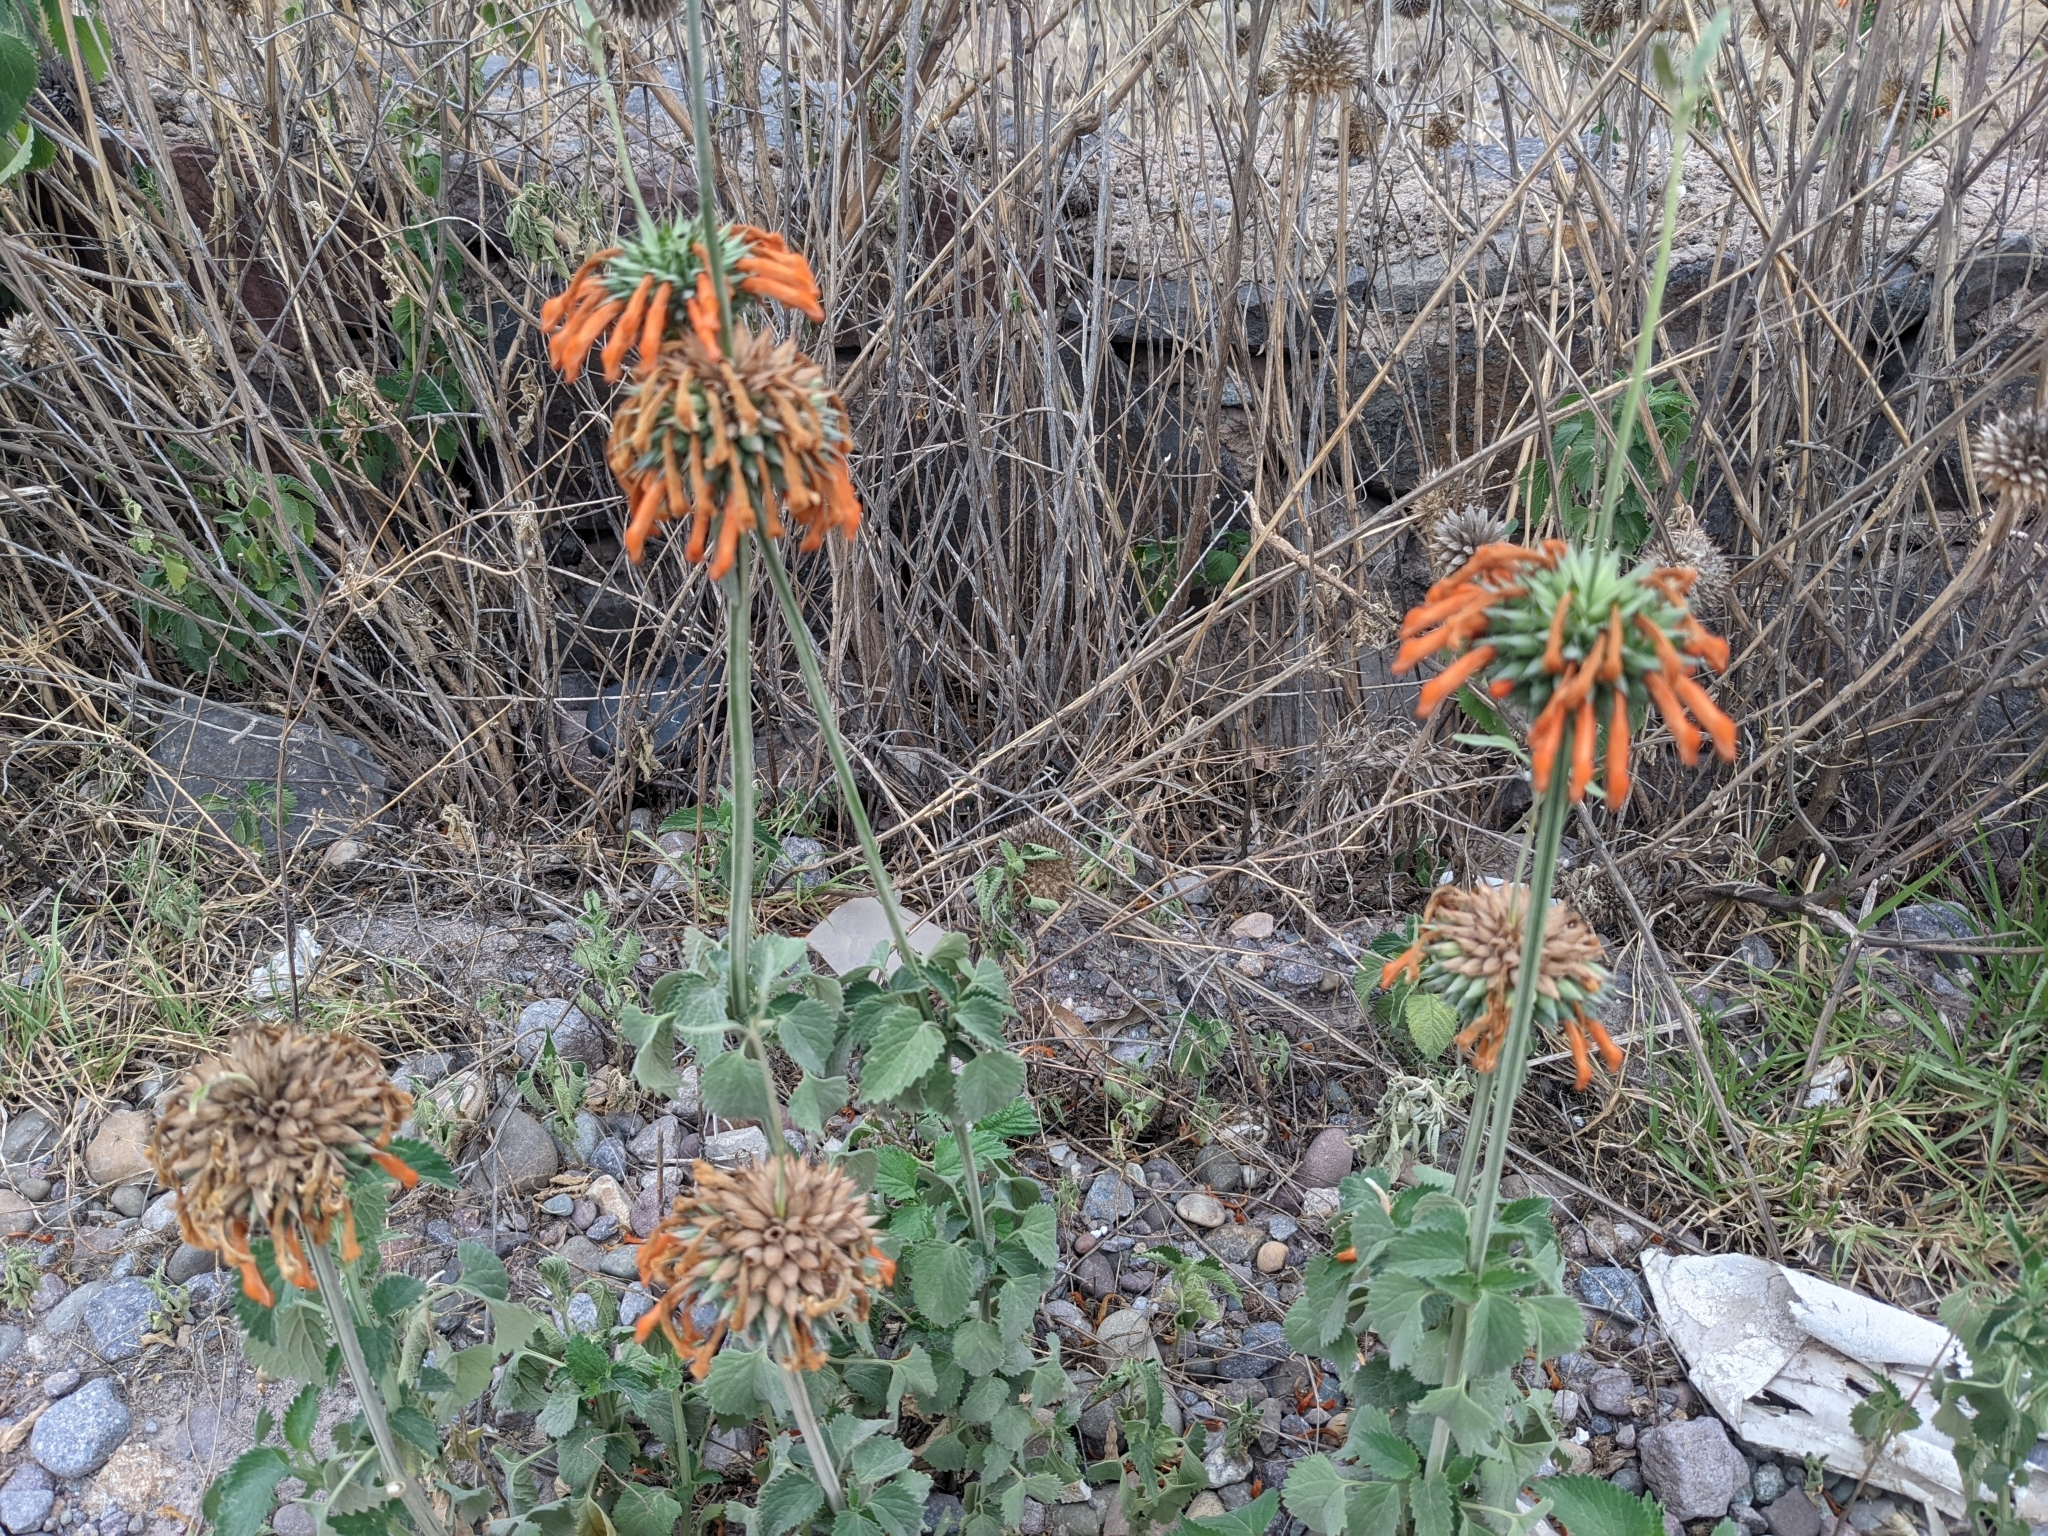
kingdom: Plantae
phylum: Tracheophyta
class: Magnoliopsida
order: Lamiales
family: Lamiaceae
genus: Leonotis
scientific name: Leonotis nepetifolia
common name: Christmas candlestick
